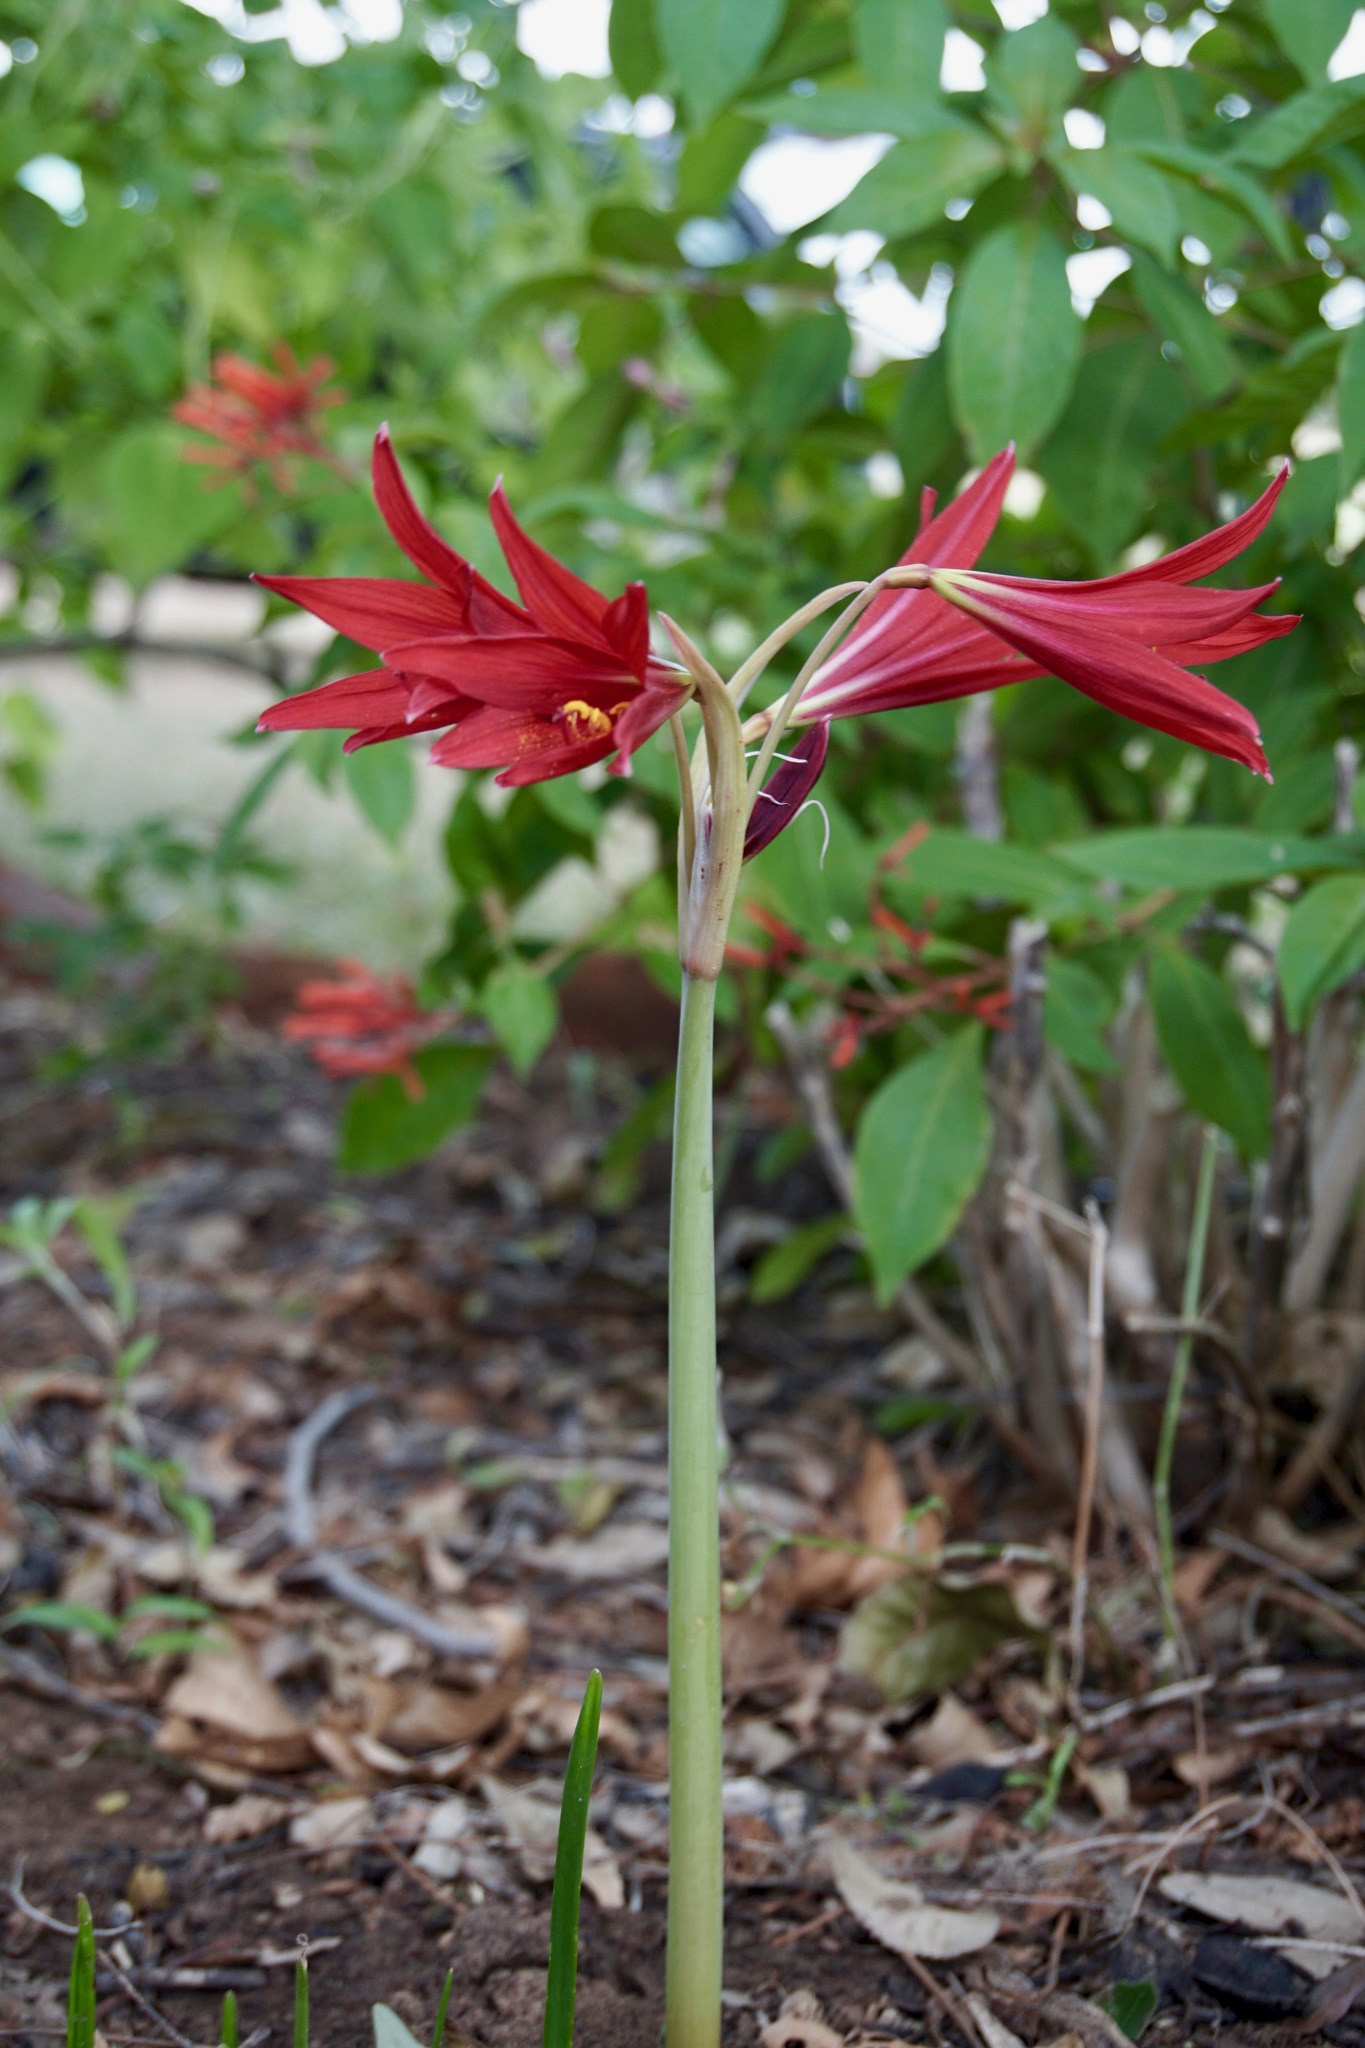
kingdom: Plantae
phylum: Tracheophyta
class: Liliopsida
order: Asparagales
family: Amaryllidaceae
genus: Zephyranthes
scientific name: Zephyranthes bifida
